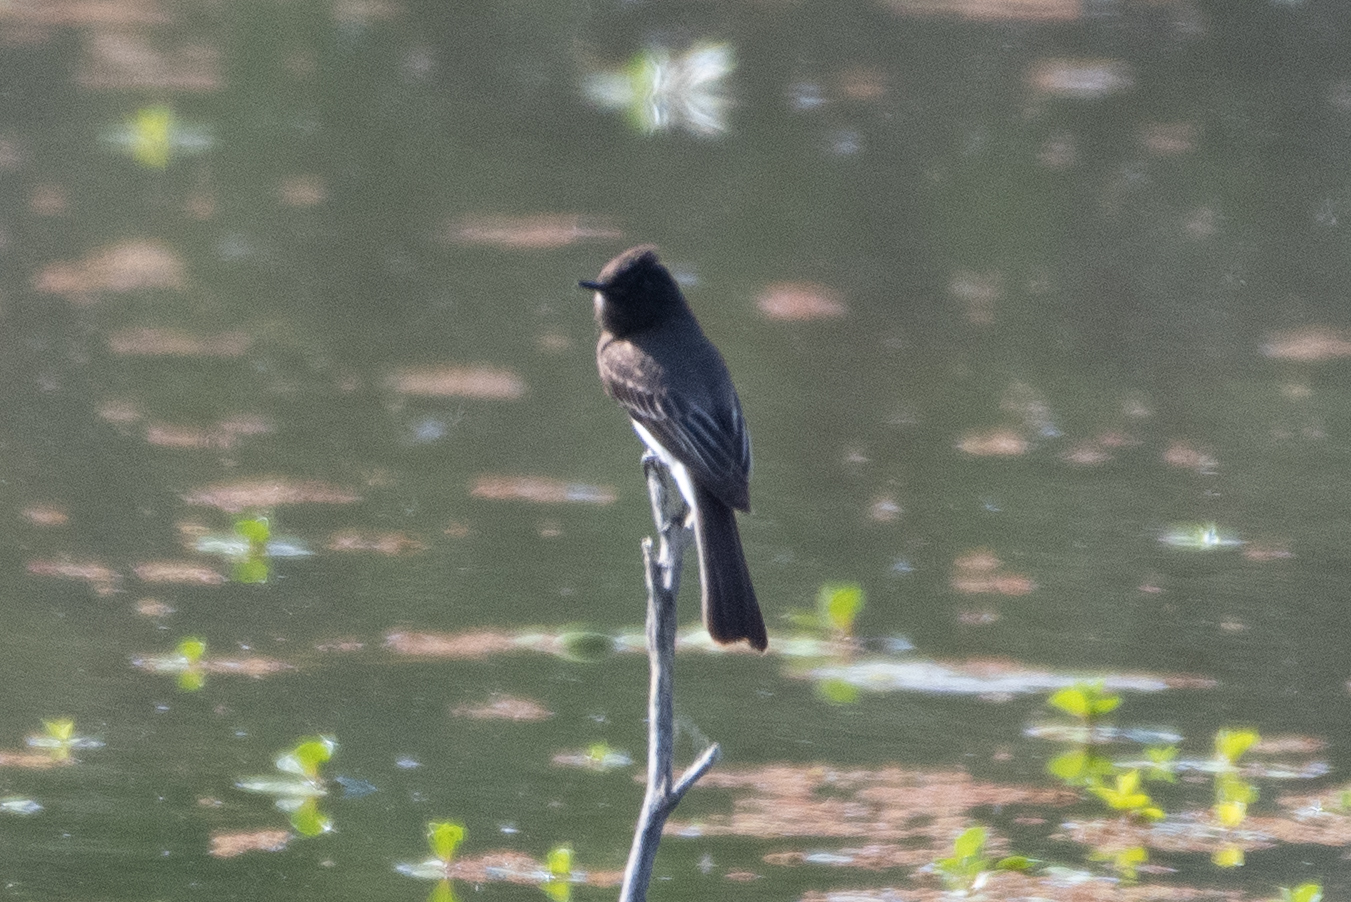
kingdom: Animalia
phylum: Chordata
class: Aves
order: Passeriformes
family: Tyrannidae
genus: Sayornis
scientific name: Sayornis nigricans
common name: Black phoebe
